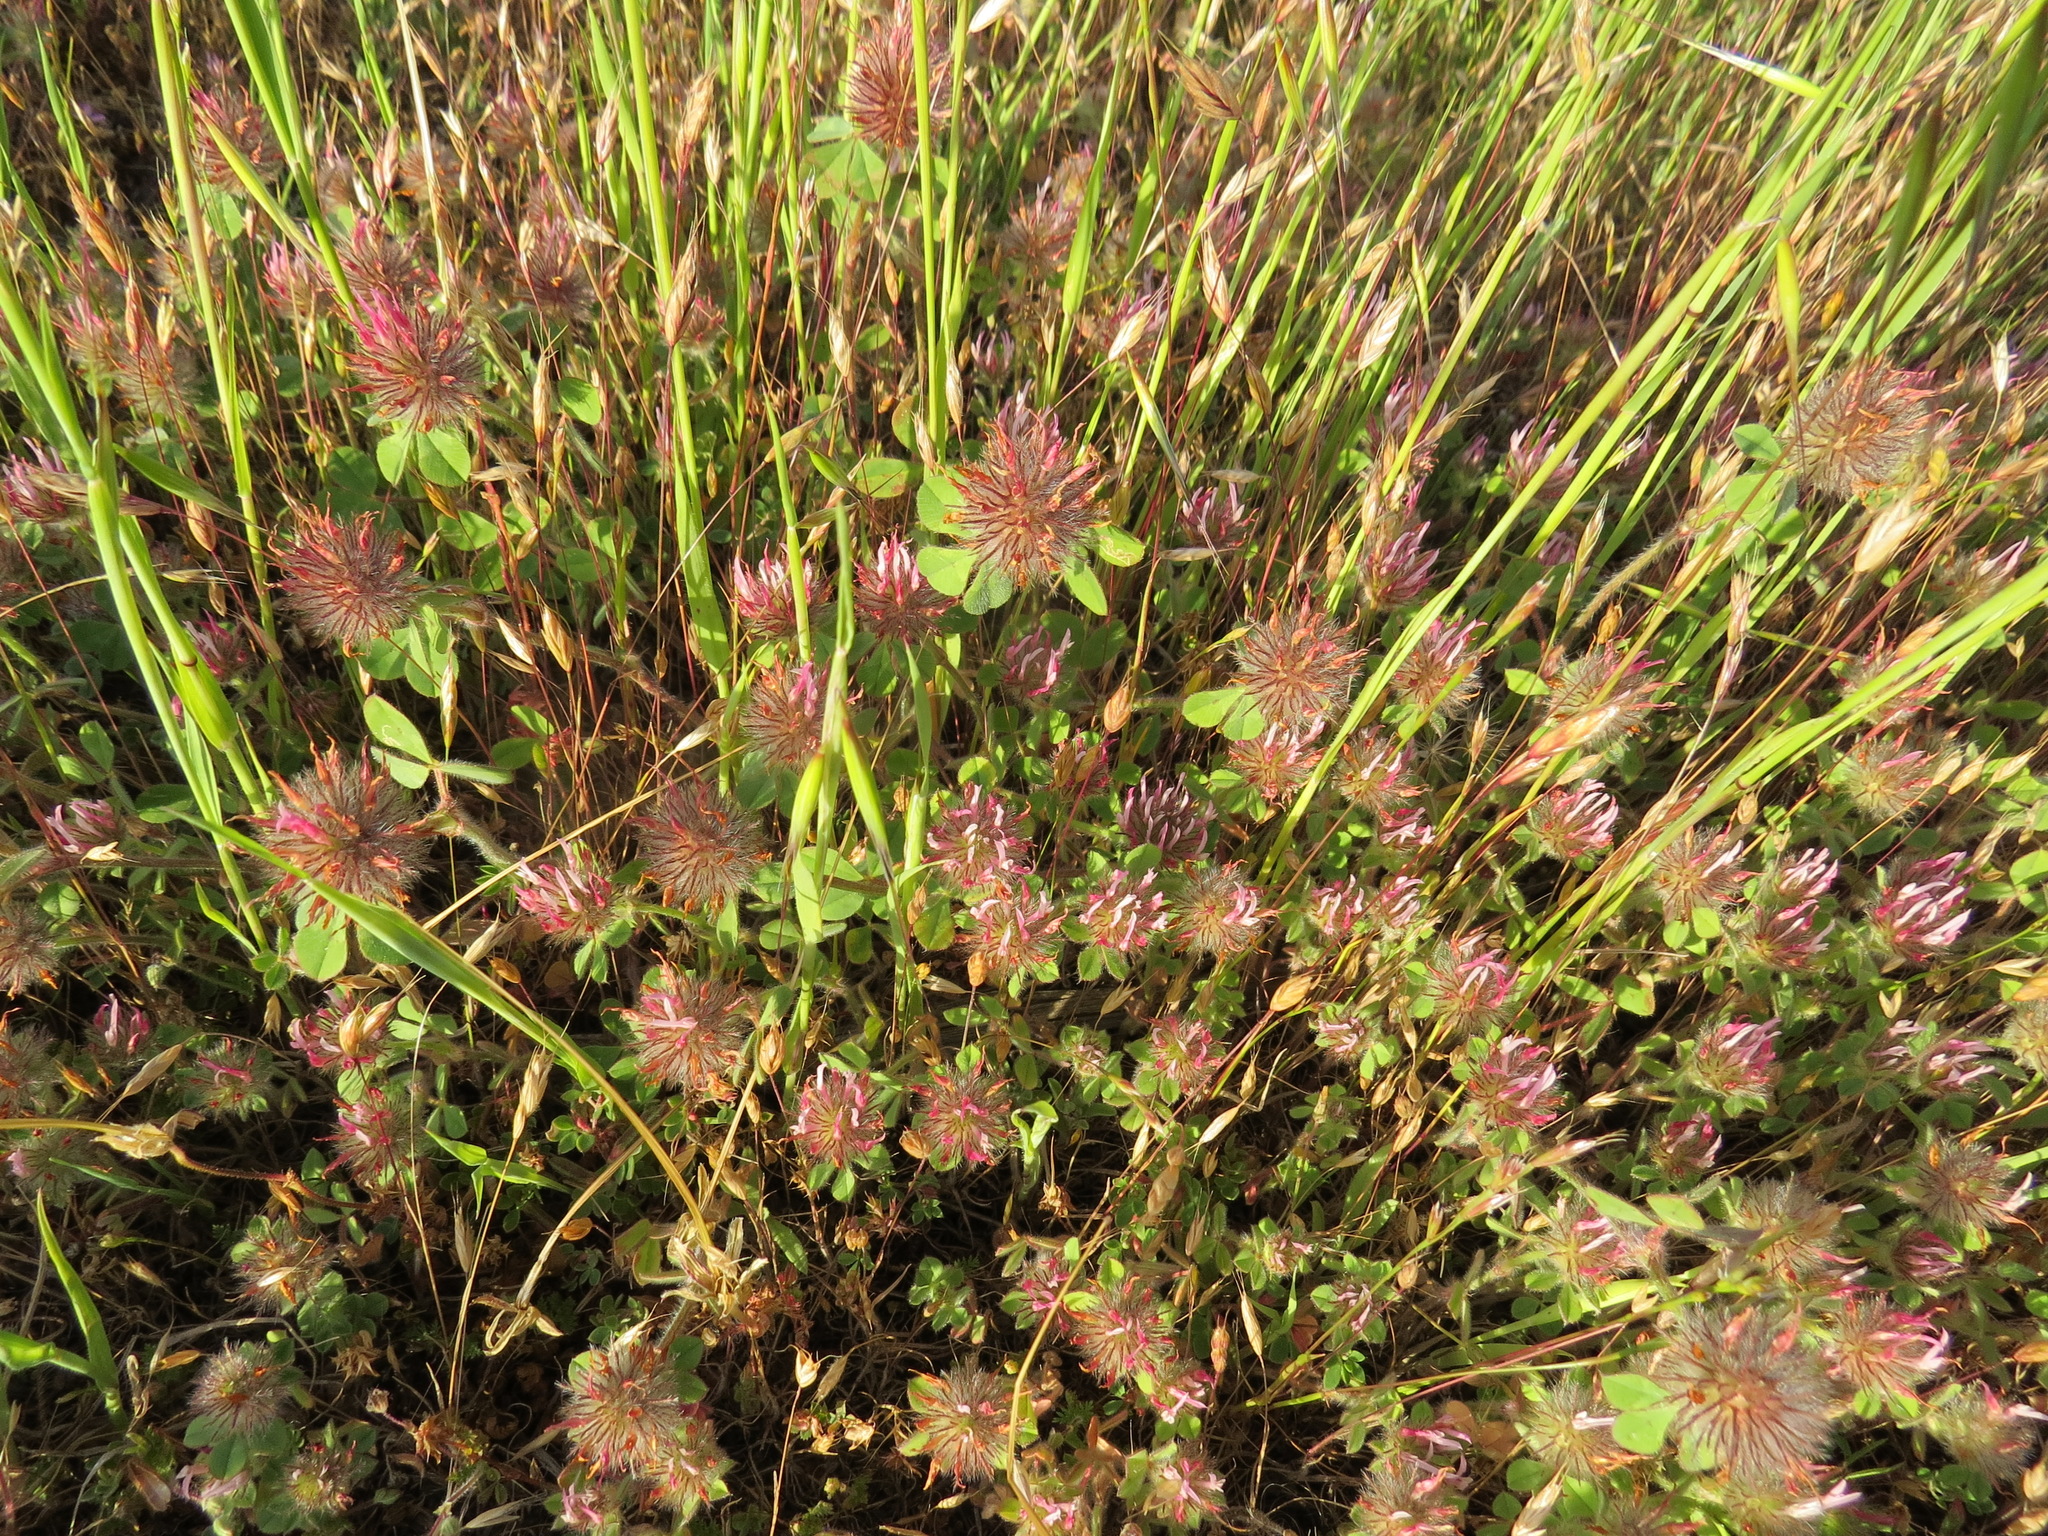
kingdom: Plantae
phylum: Tracheophyta
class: Magnoliopsida
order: Fabales
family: Fabaceae
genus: Trifolium
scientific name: Trifolium hirtum
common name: Rose clover
